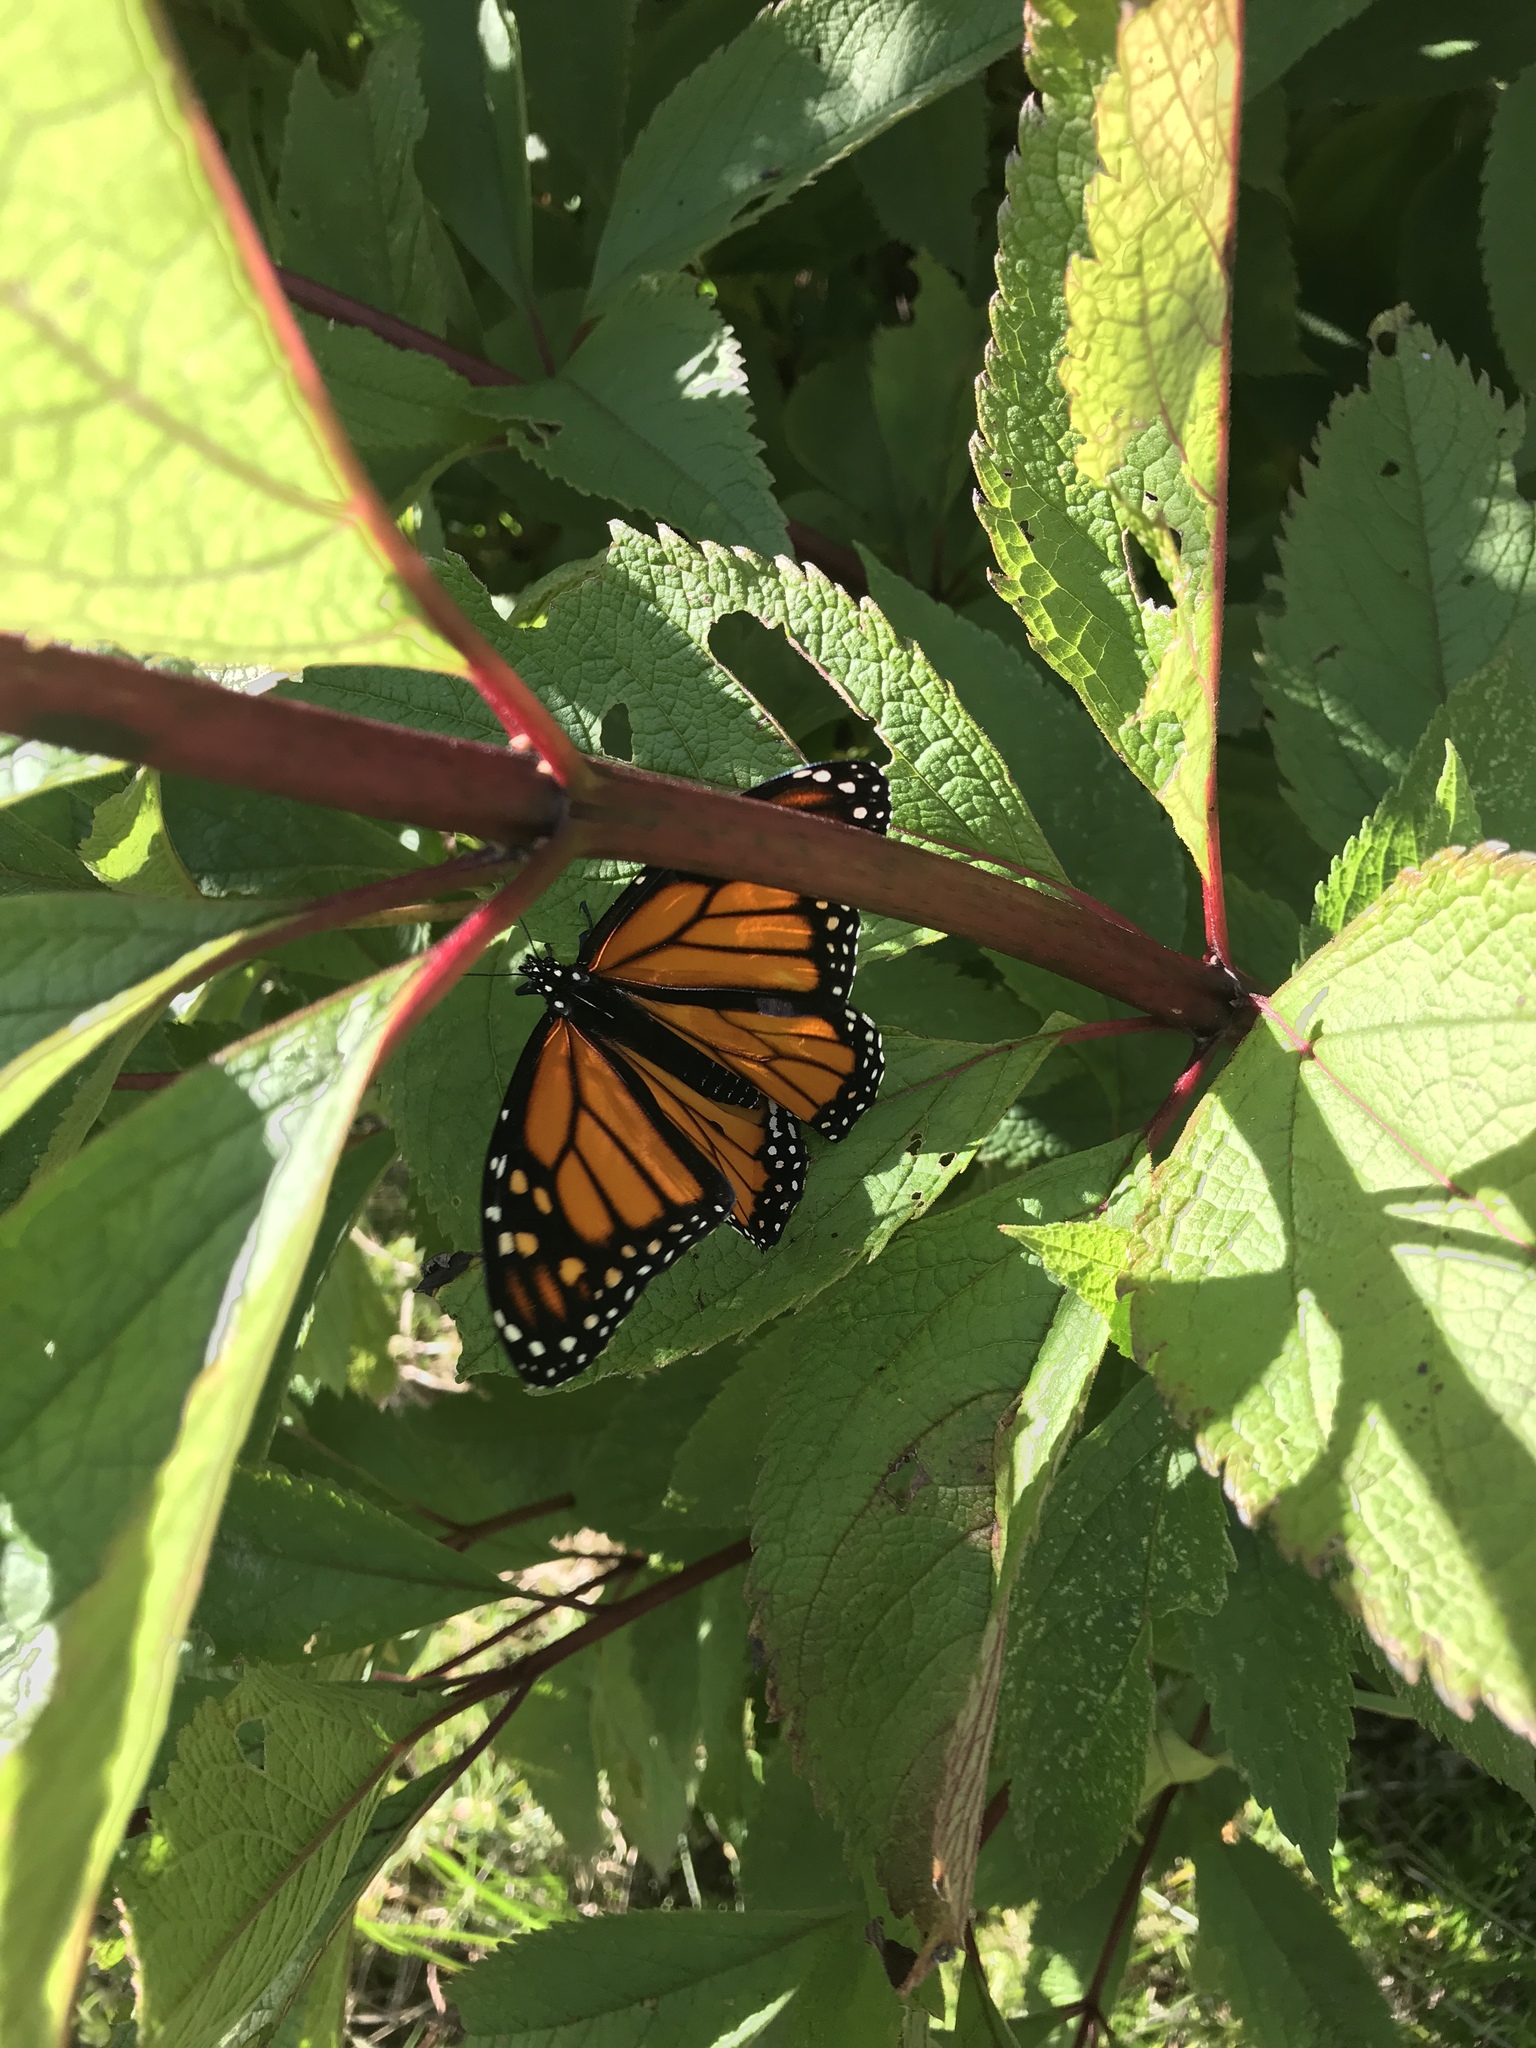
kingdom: Animalia
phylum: Arthropoda
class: Insecta
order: Lepidoptera
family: Nymphalidae
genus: Danaus
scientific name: Danaus plexippus
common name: Monarch
